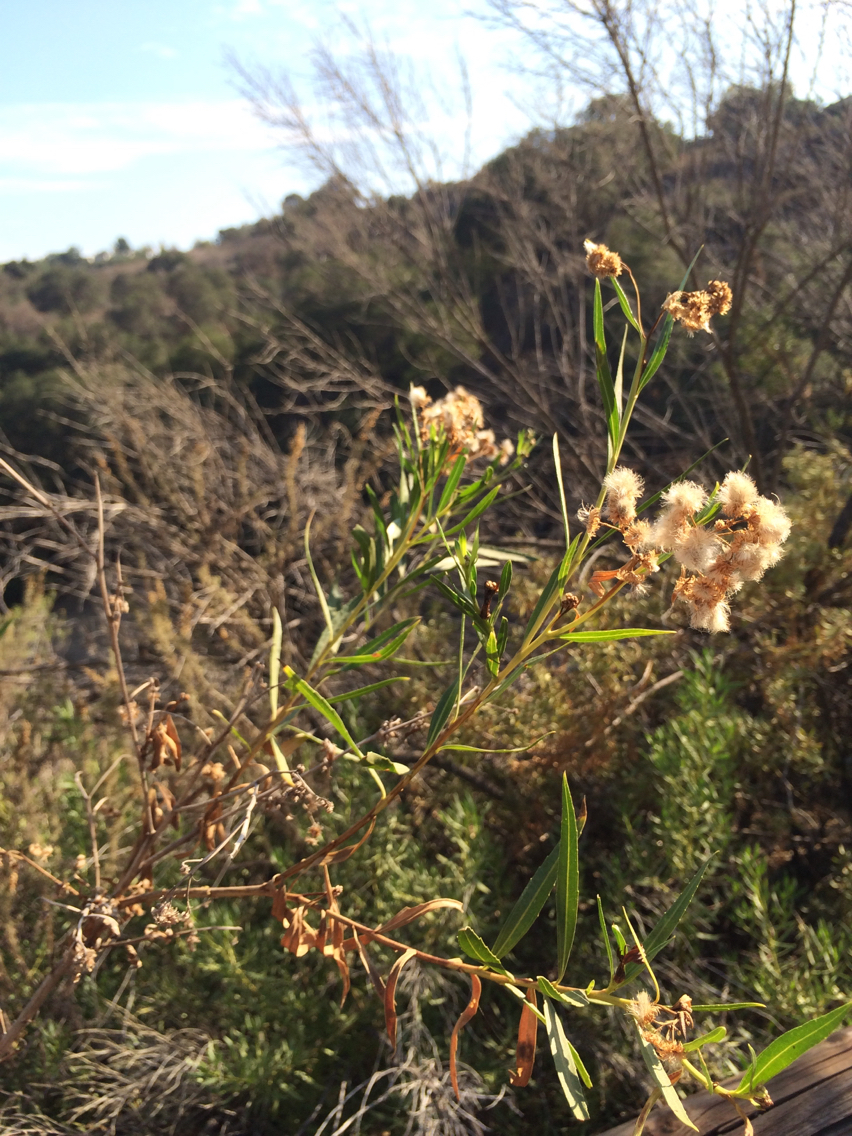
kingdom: Plantae
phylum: Tracheophyta
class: Magnoliopsida
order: Asterales
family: Asteraceae
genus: Baccharis
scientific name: Baccharis salicifolia
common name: Sticky baccharis
